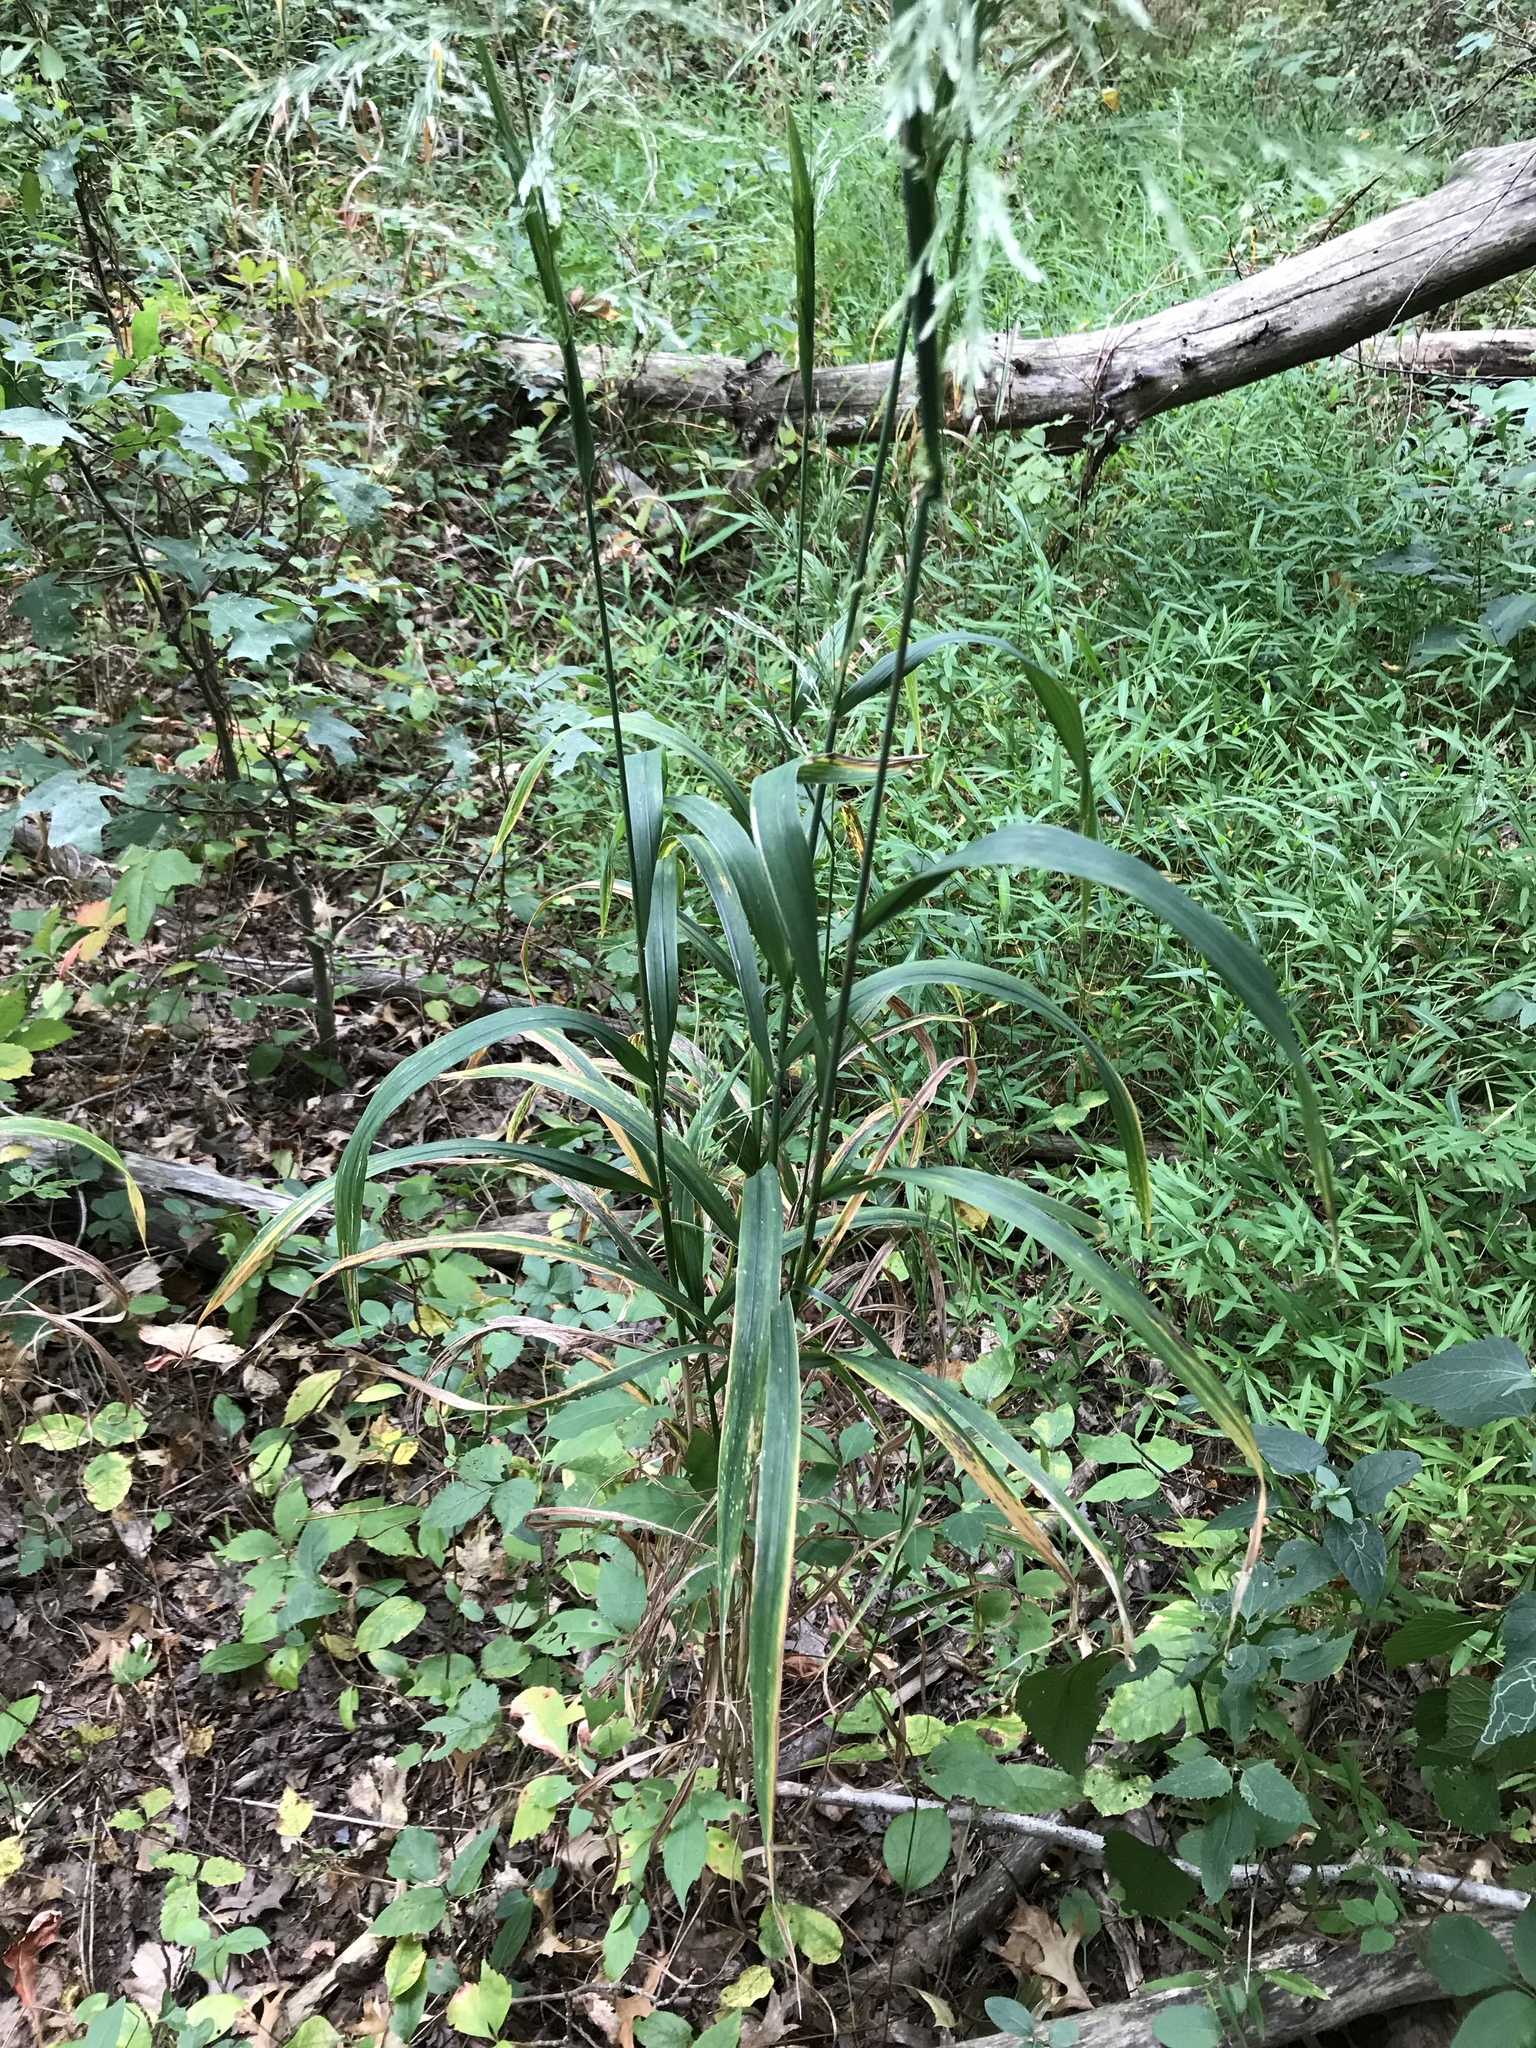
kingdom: Plantae
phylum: Tracheophyta
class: Liliopsida
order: Poales
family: Poaceae
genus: Cinna
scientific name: Cinna arundinacea
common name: Stout woodreed
